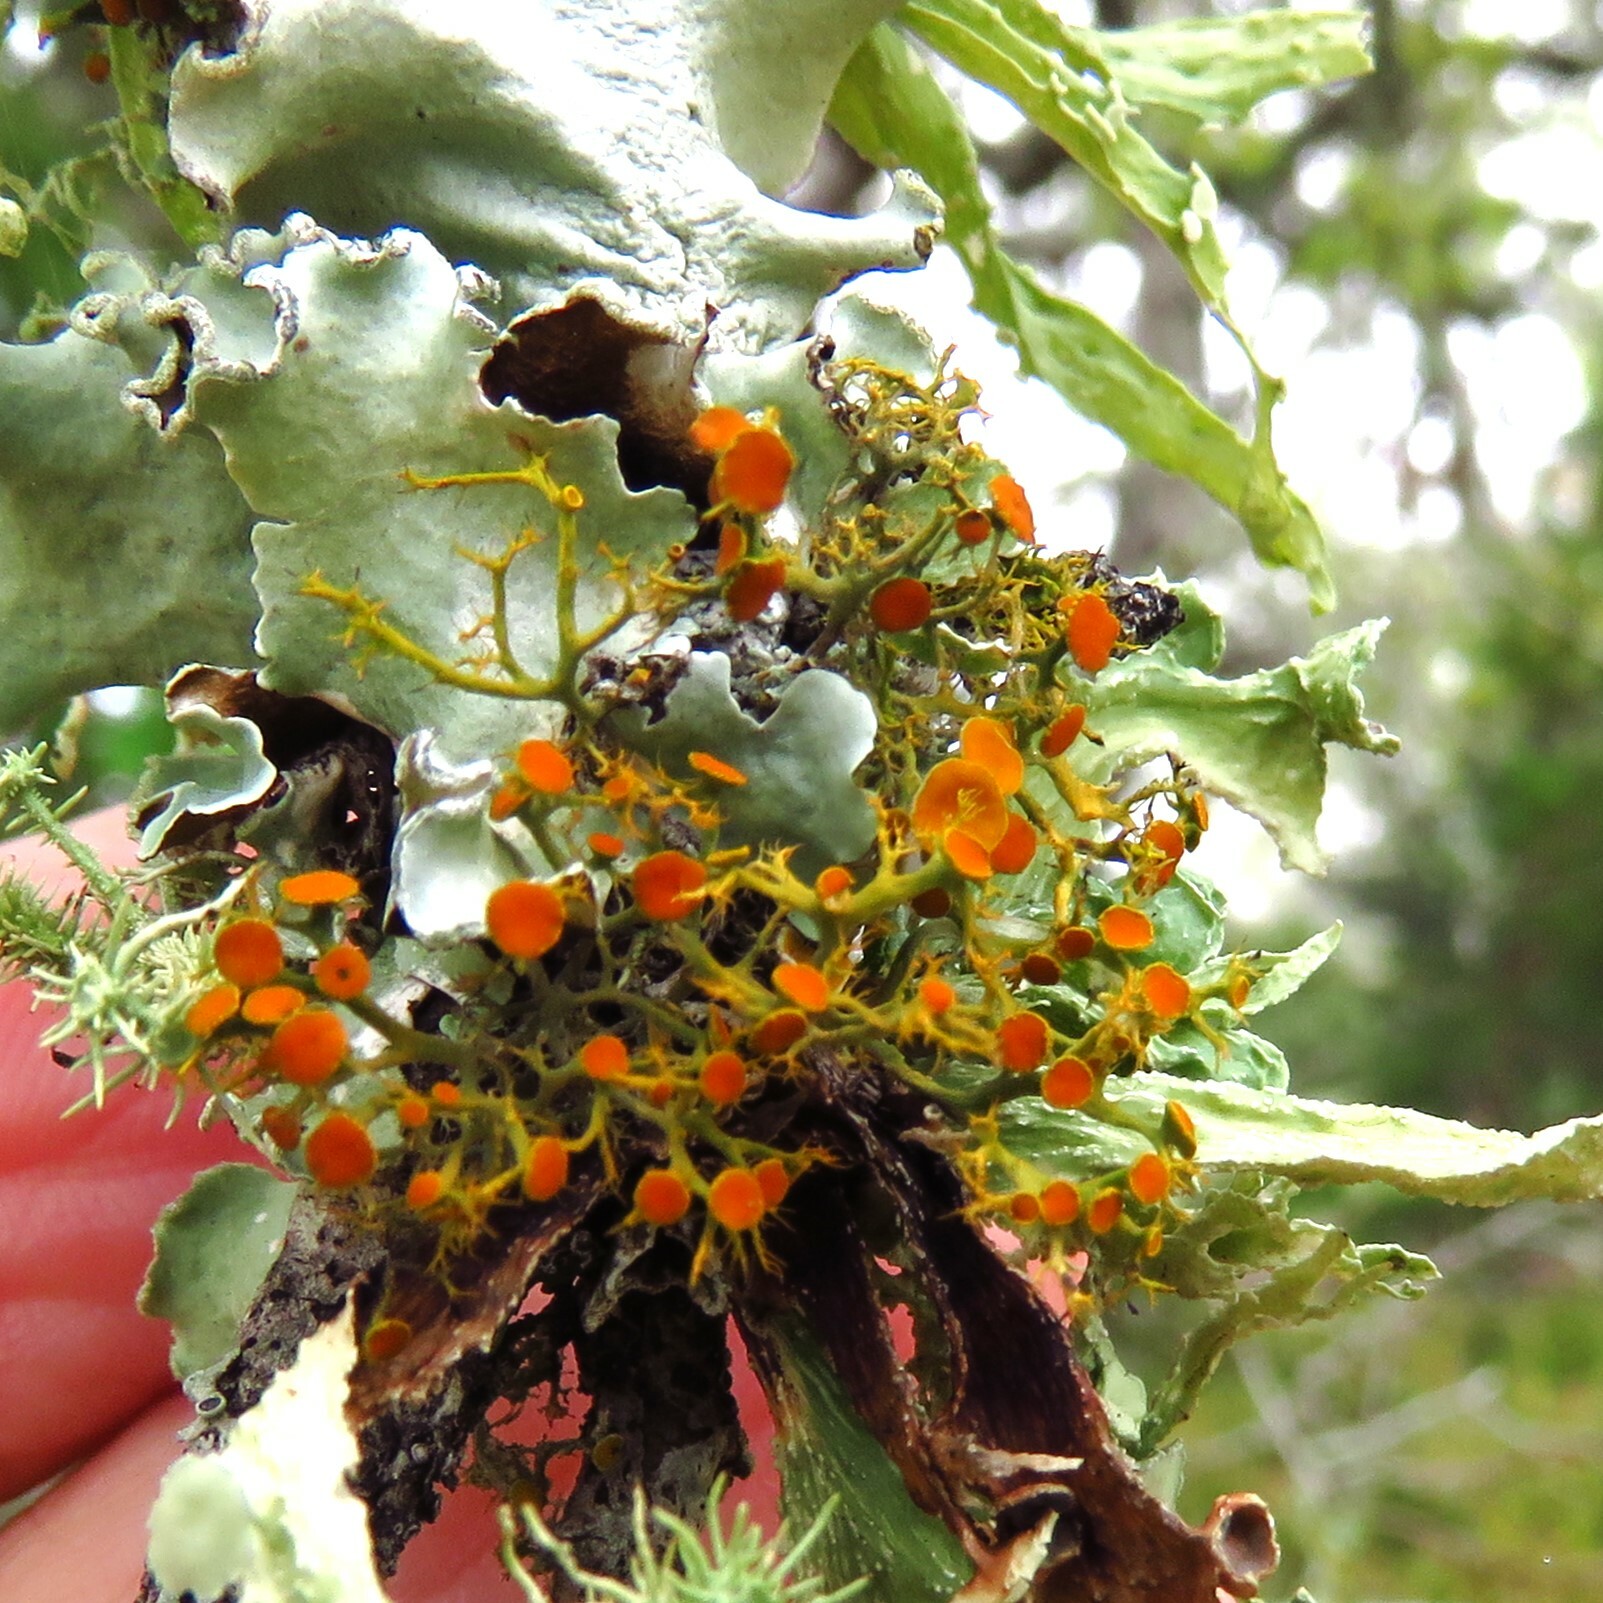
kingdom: Fungi
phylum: Ascomycota
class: Lecanoromycetes
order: Teloschistales
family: Teloschistaceae
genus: Teloschistes
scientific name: Teloschistes exilis
